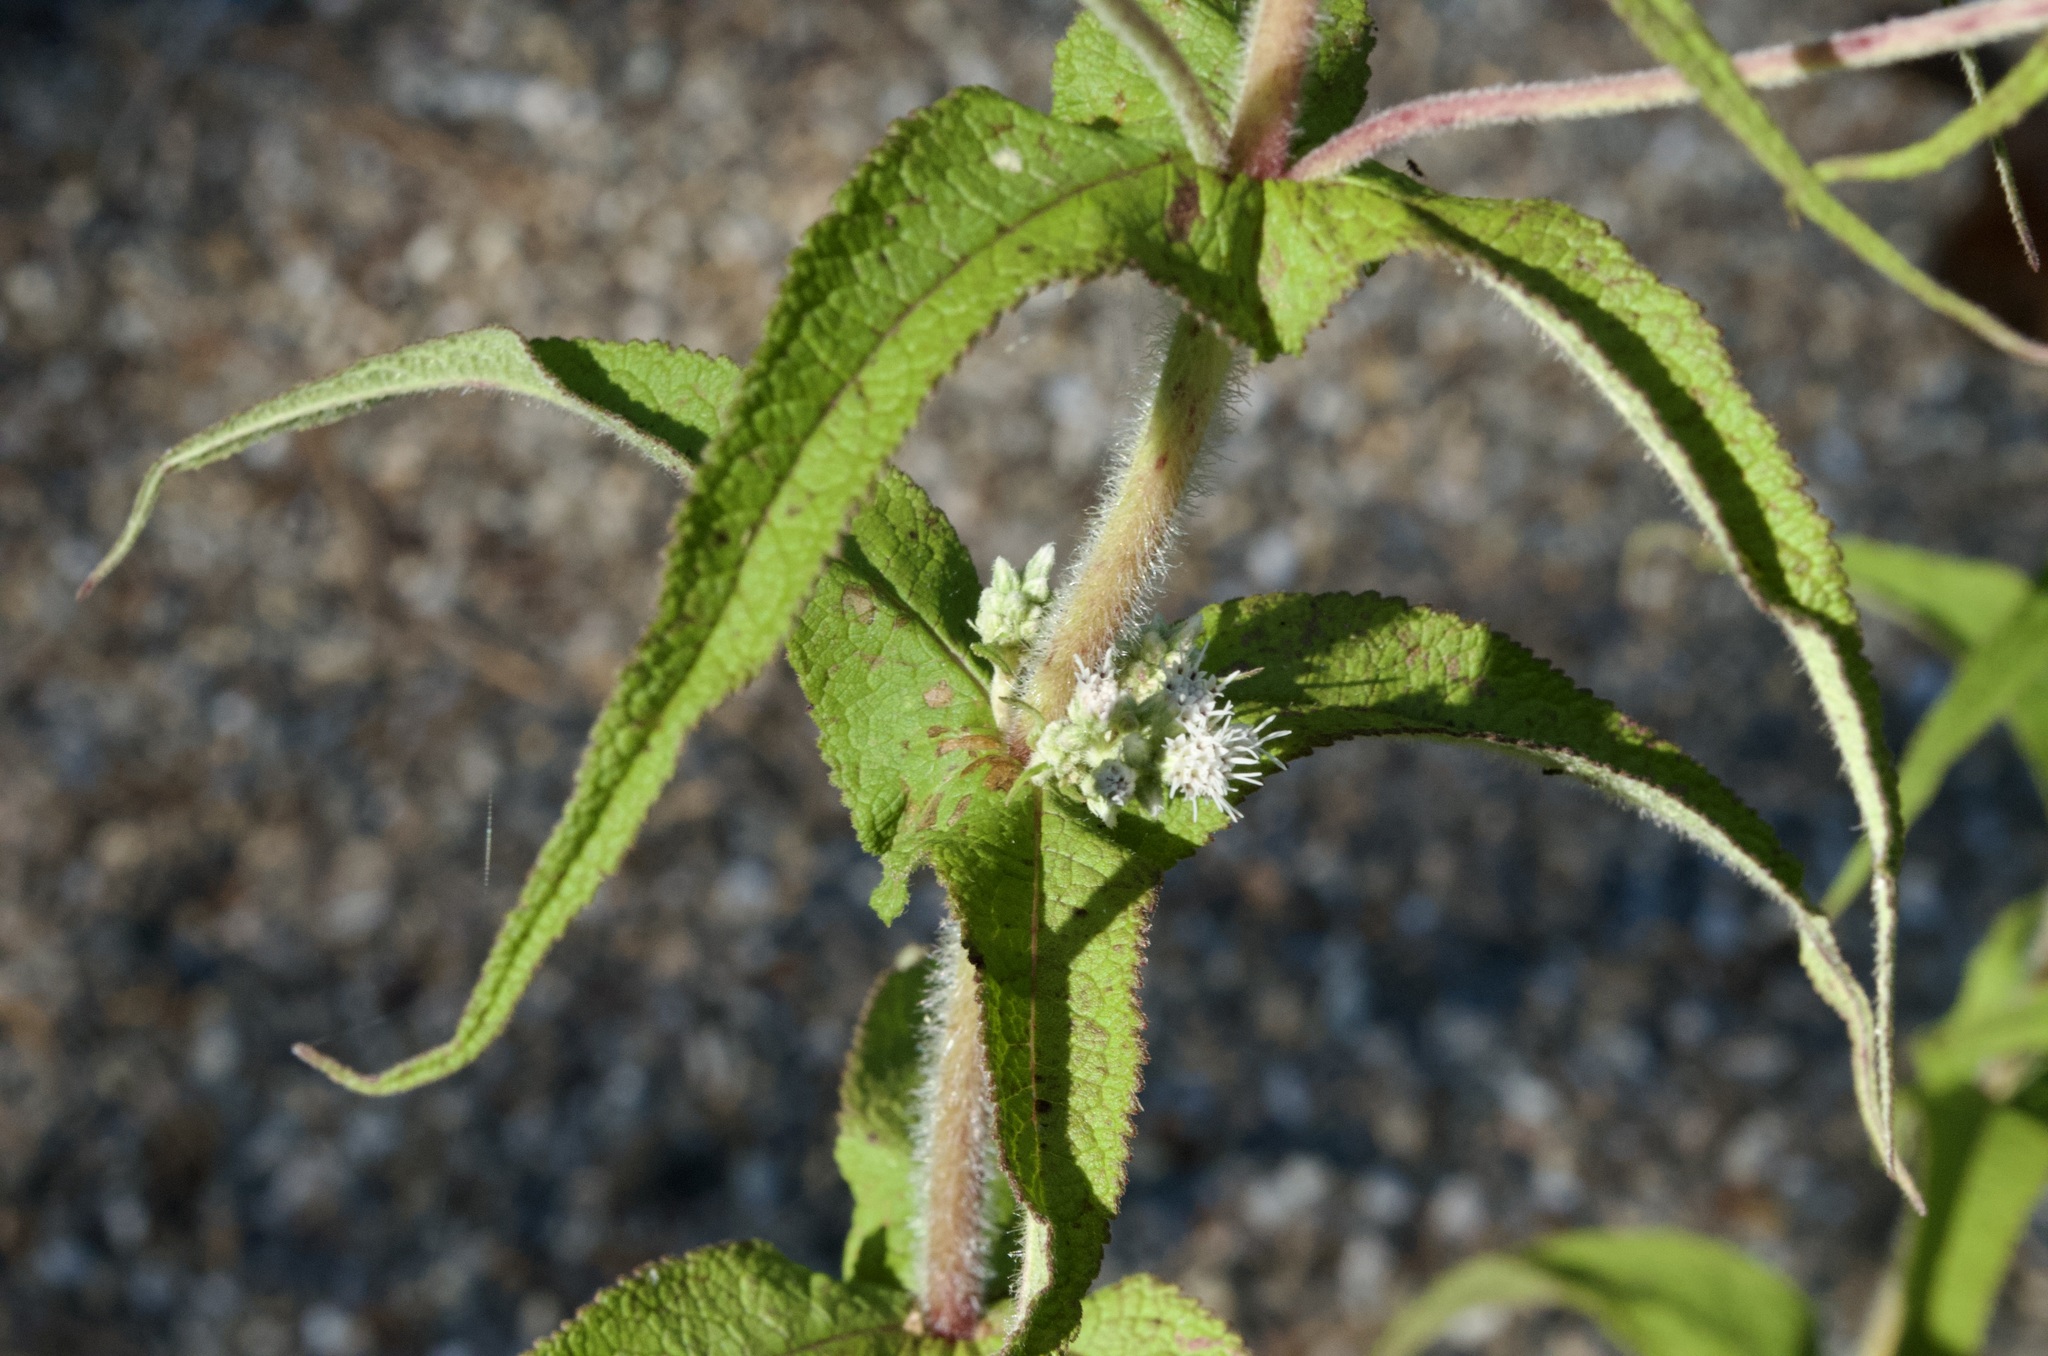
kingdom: Plantae
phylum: Tracheophyta
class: Magnoliopsida
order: Asterales
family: Asteraceae
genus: Eupatorium
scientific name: Eupatorium perfoliatum
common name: Boneset
